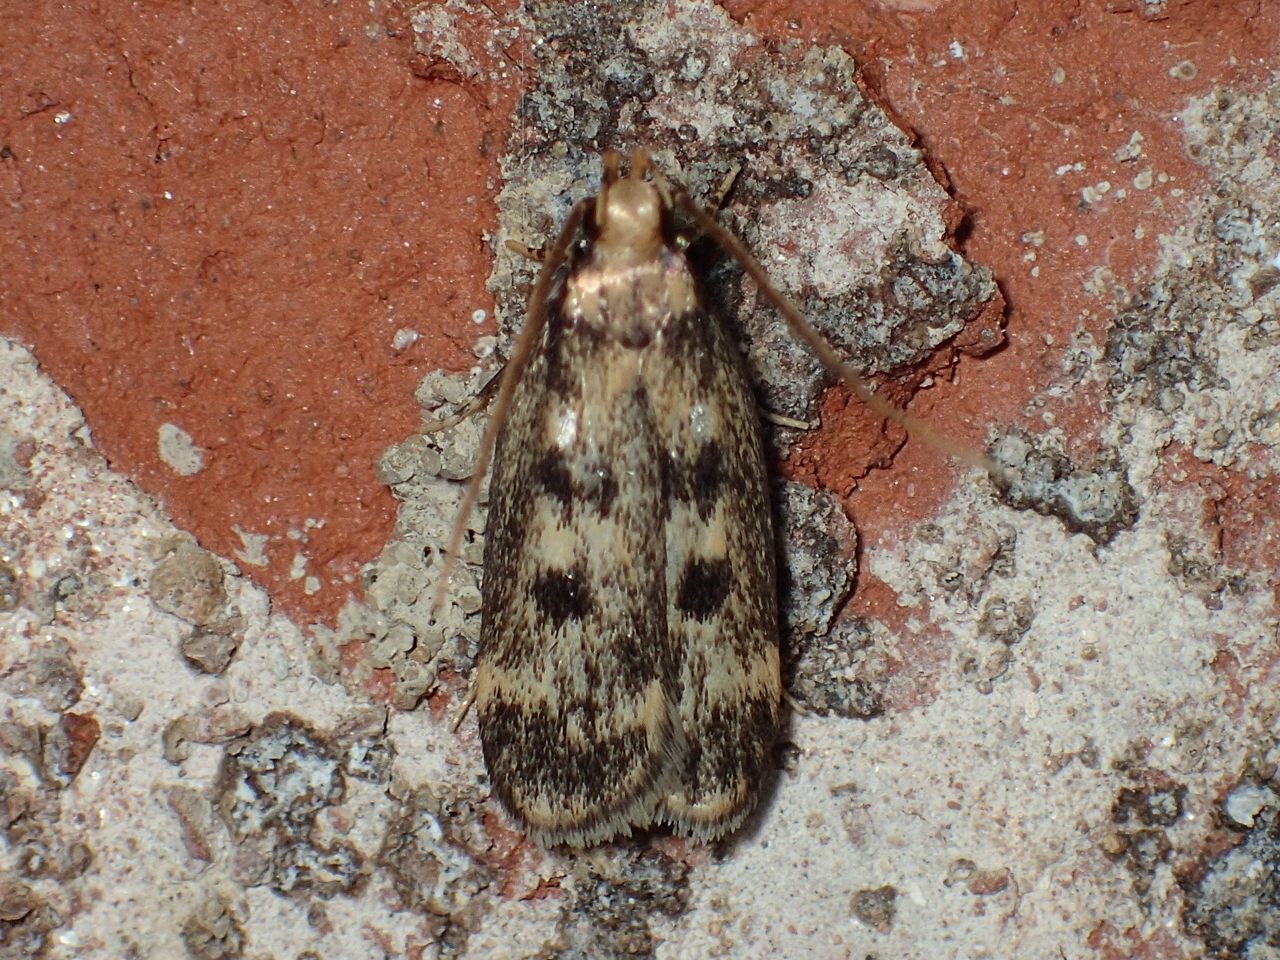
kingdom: Animalia
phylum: Arthropoda
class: Insecta
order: Lepidoptera
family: Lecithoceridae
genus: Martyringa
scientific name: Martyringa latipennis
